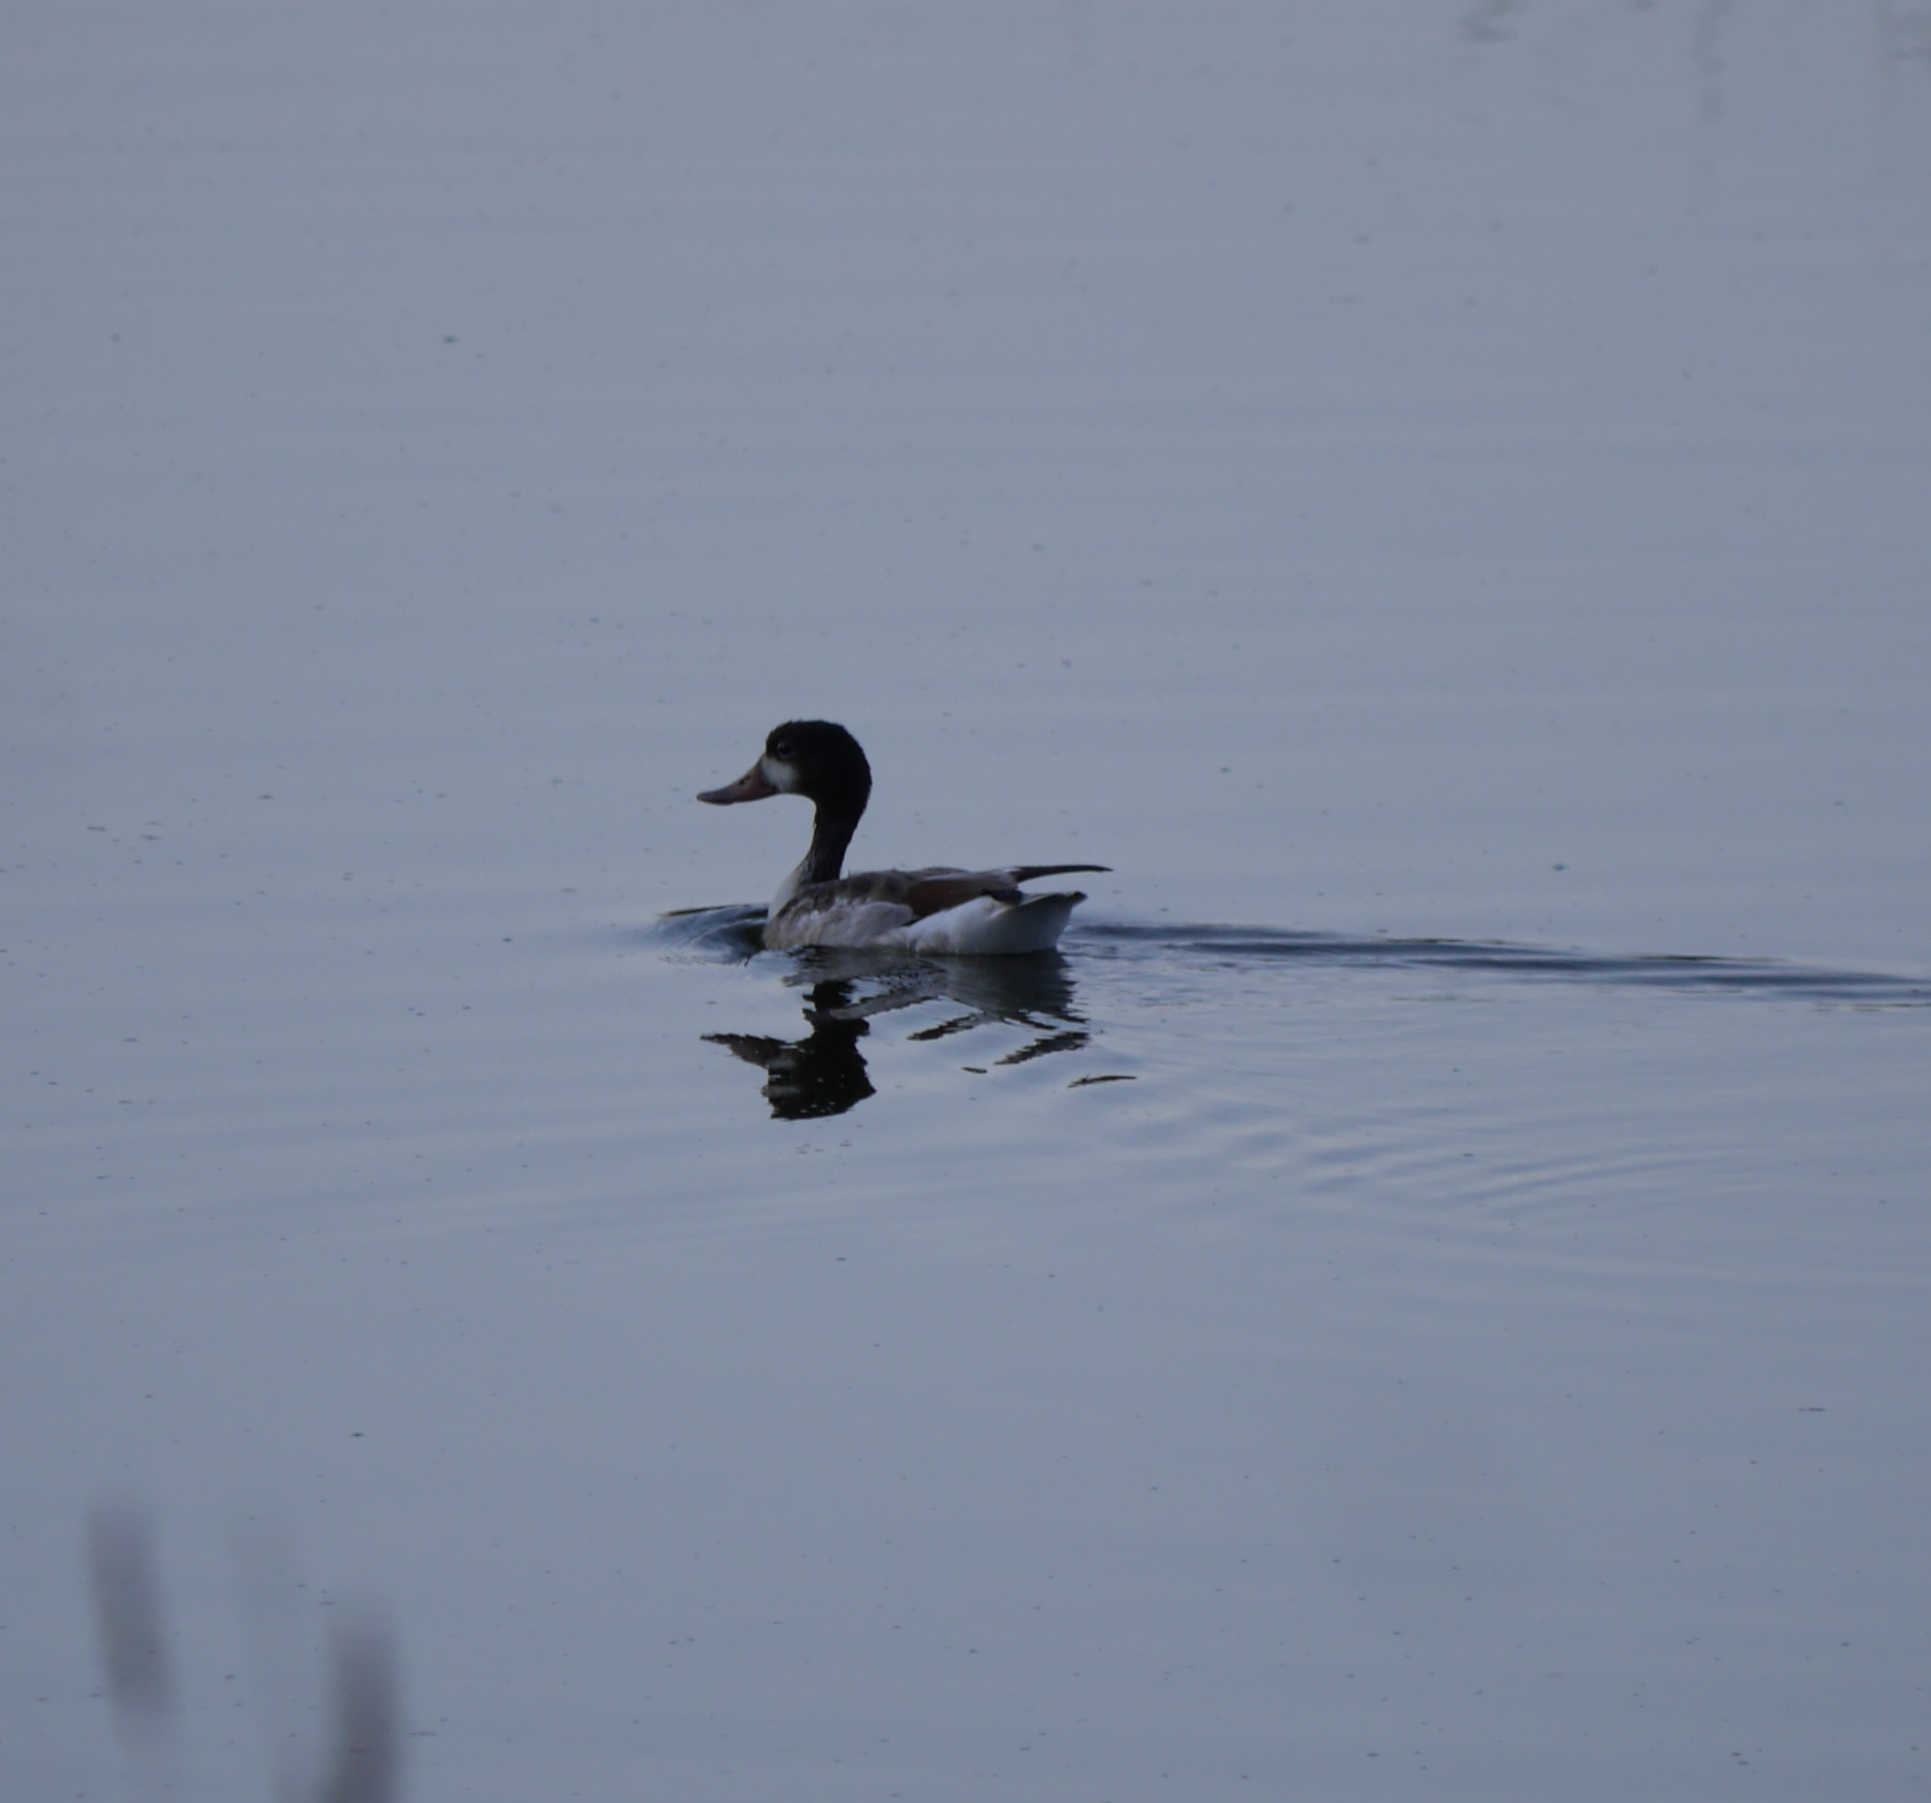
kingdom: Animalia
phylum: Chordata
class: Aves
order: Anseriformes
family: Anatidae
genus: Tadorna
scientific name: Tadorna tadorna
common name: Common shelduck
